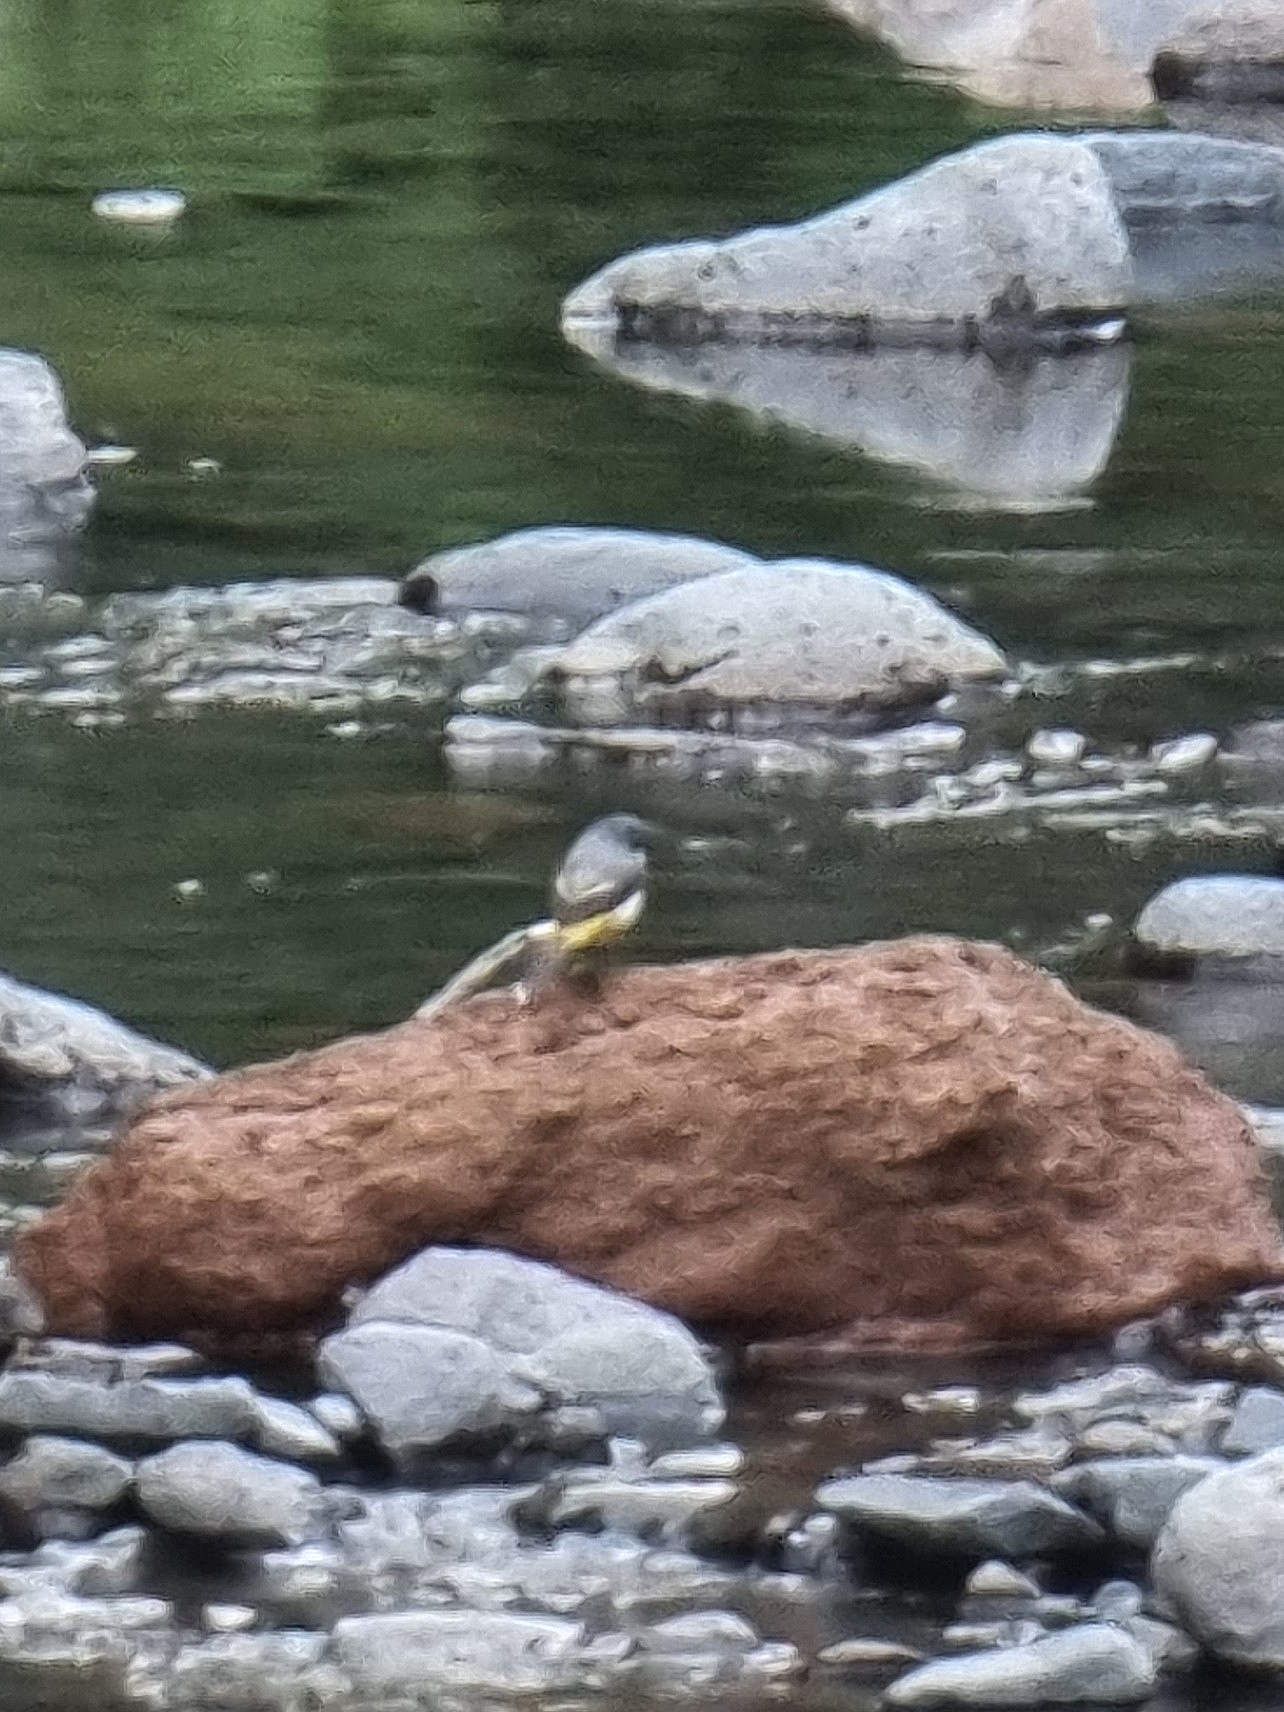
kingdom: Animalia
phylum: Chordata
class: Aves
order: Passeriformes
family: Motacillidae
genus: Motacilla
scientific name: Motacilla cinerea
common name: Grey wagtail
